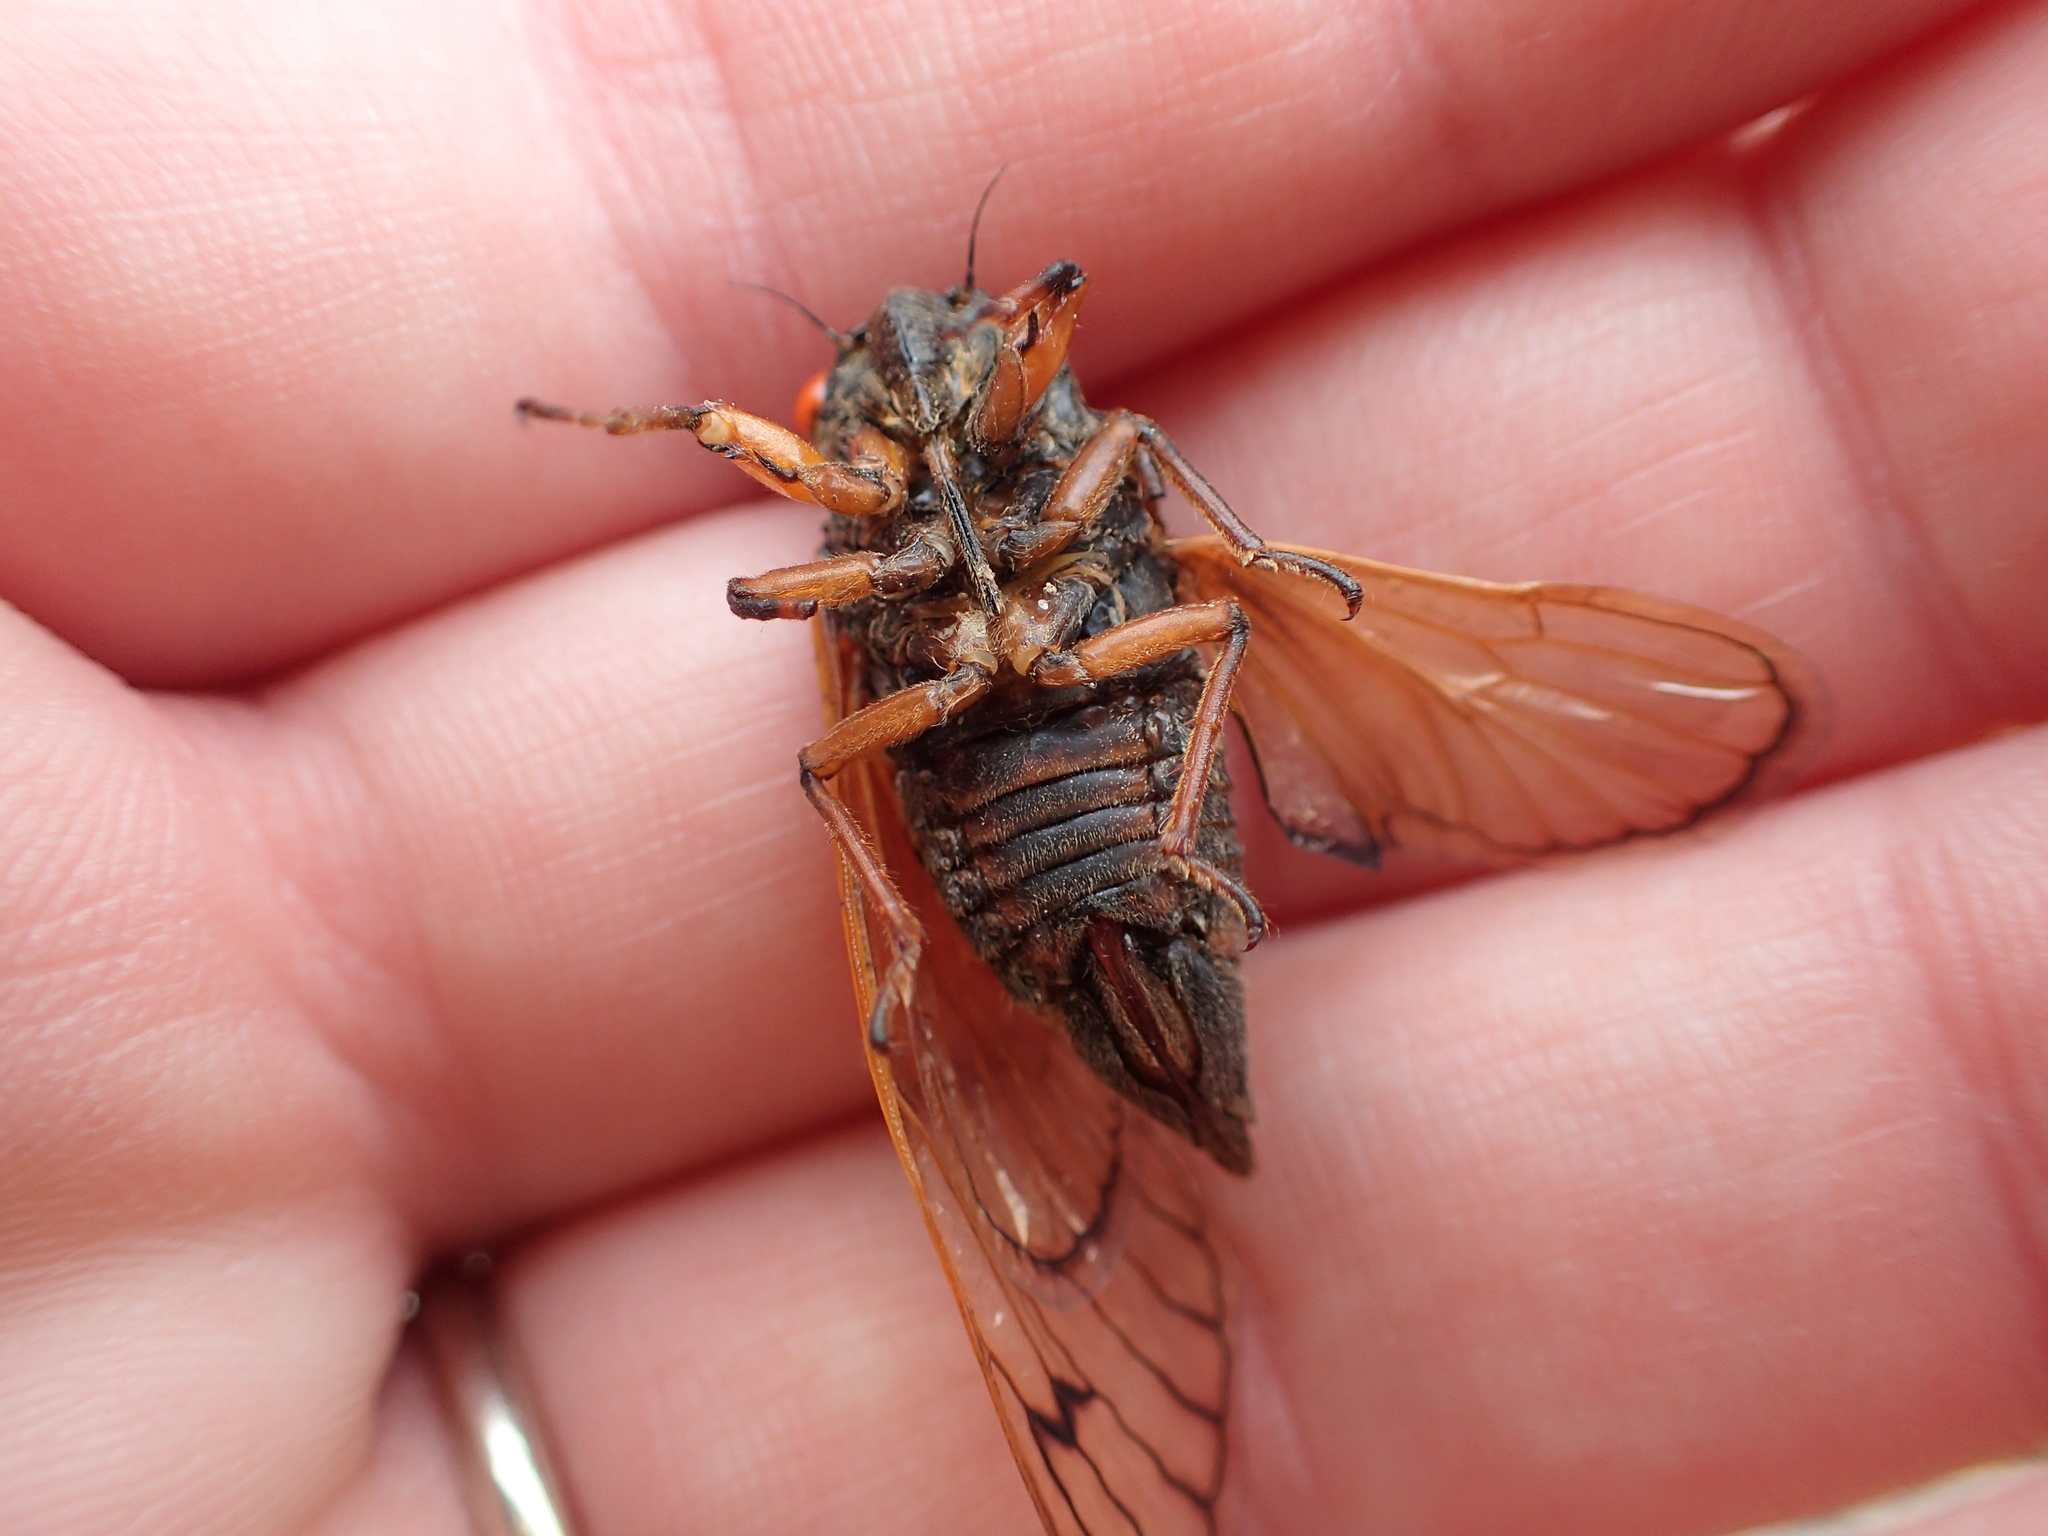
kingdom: Animalia
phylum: Arthropoda
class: Insecta
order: Hemiptera
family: Cicadidae
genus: Magicicada
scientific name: Magicicada
